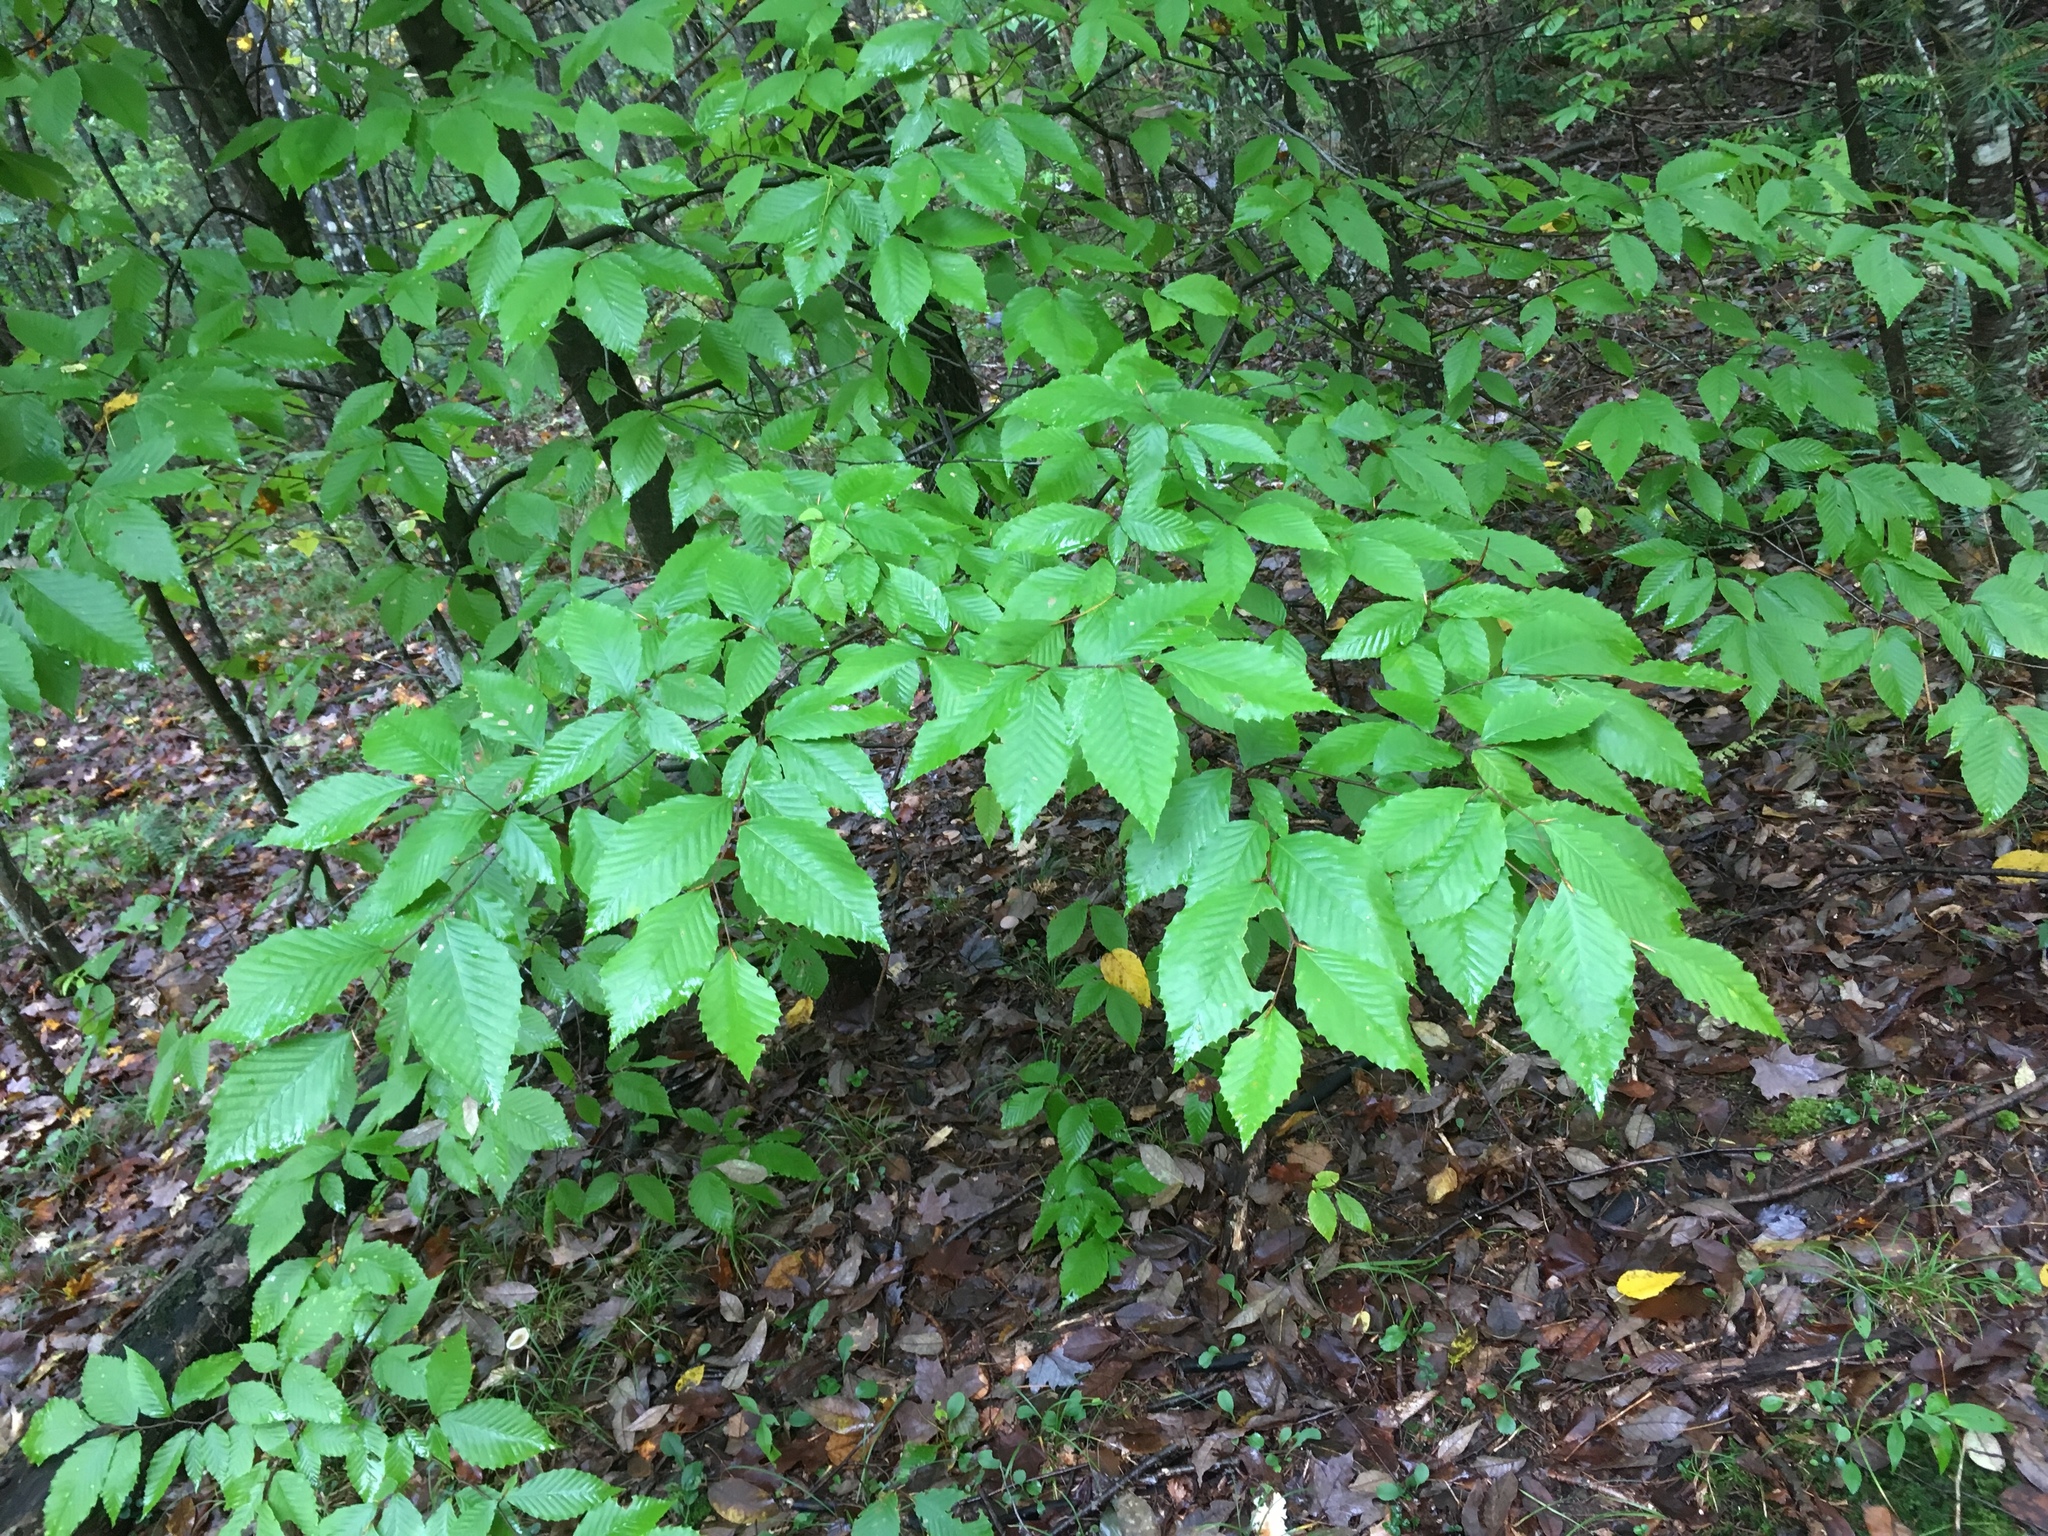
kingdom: Plantae
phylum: Tracheophyta
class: Magnoliopsida
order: Fagales
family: Fagaceae
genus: Fagus
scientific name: Fagus grandifolia
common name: American beech
